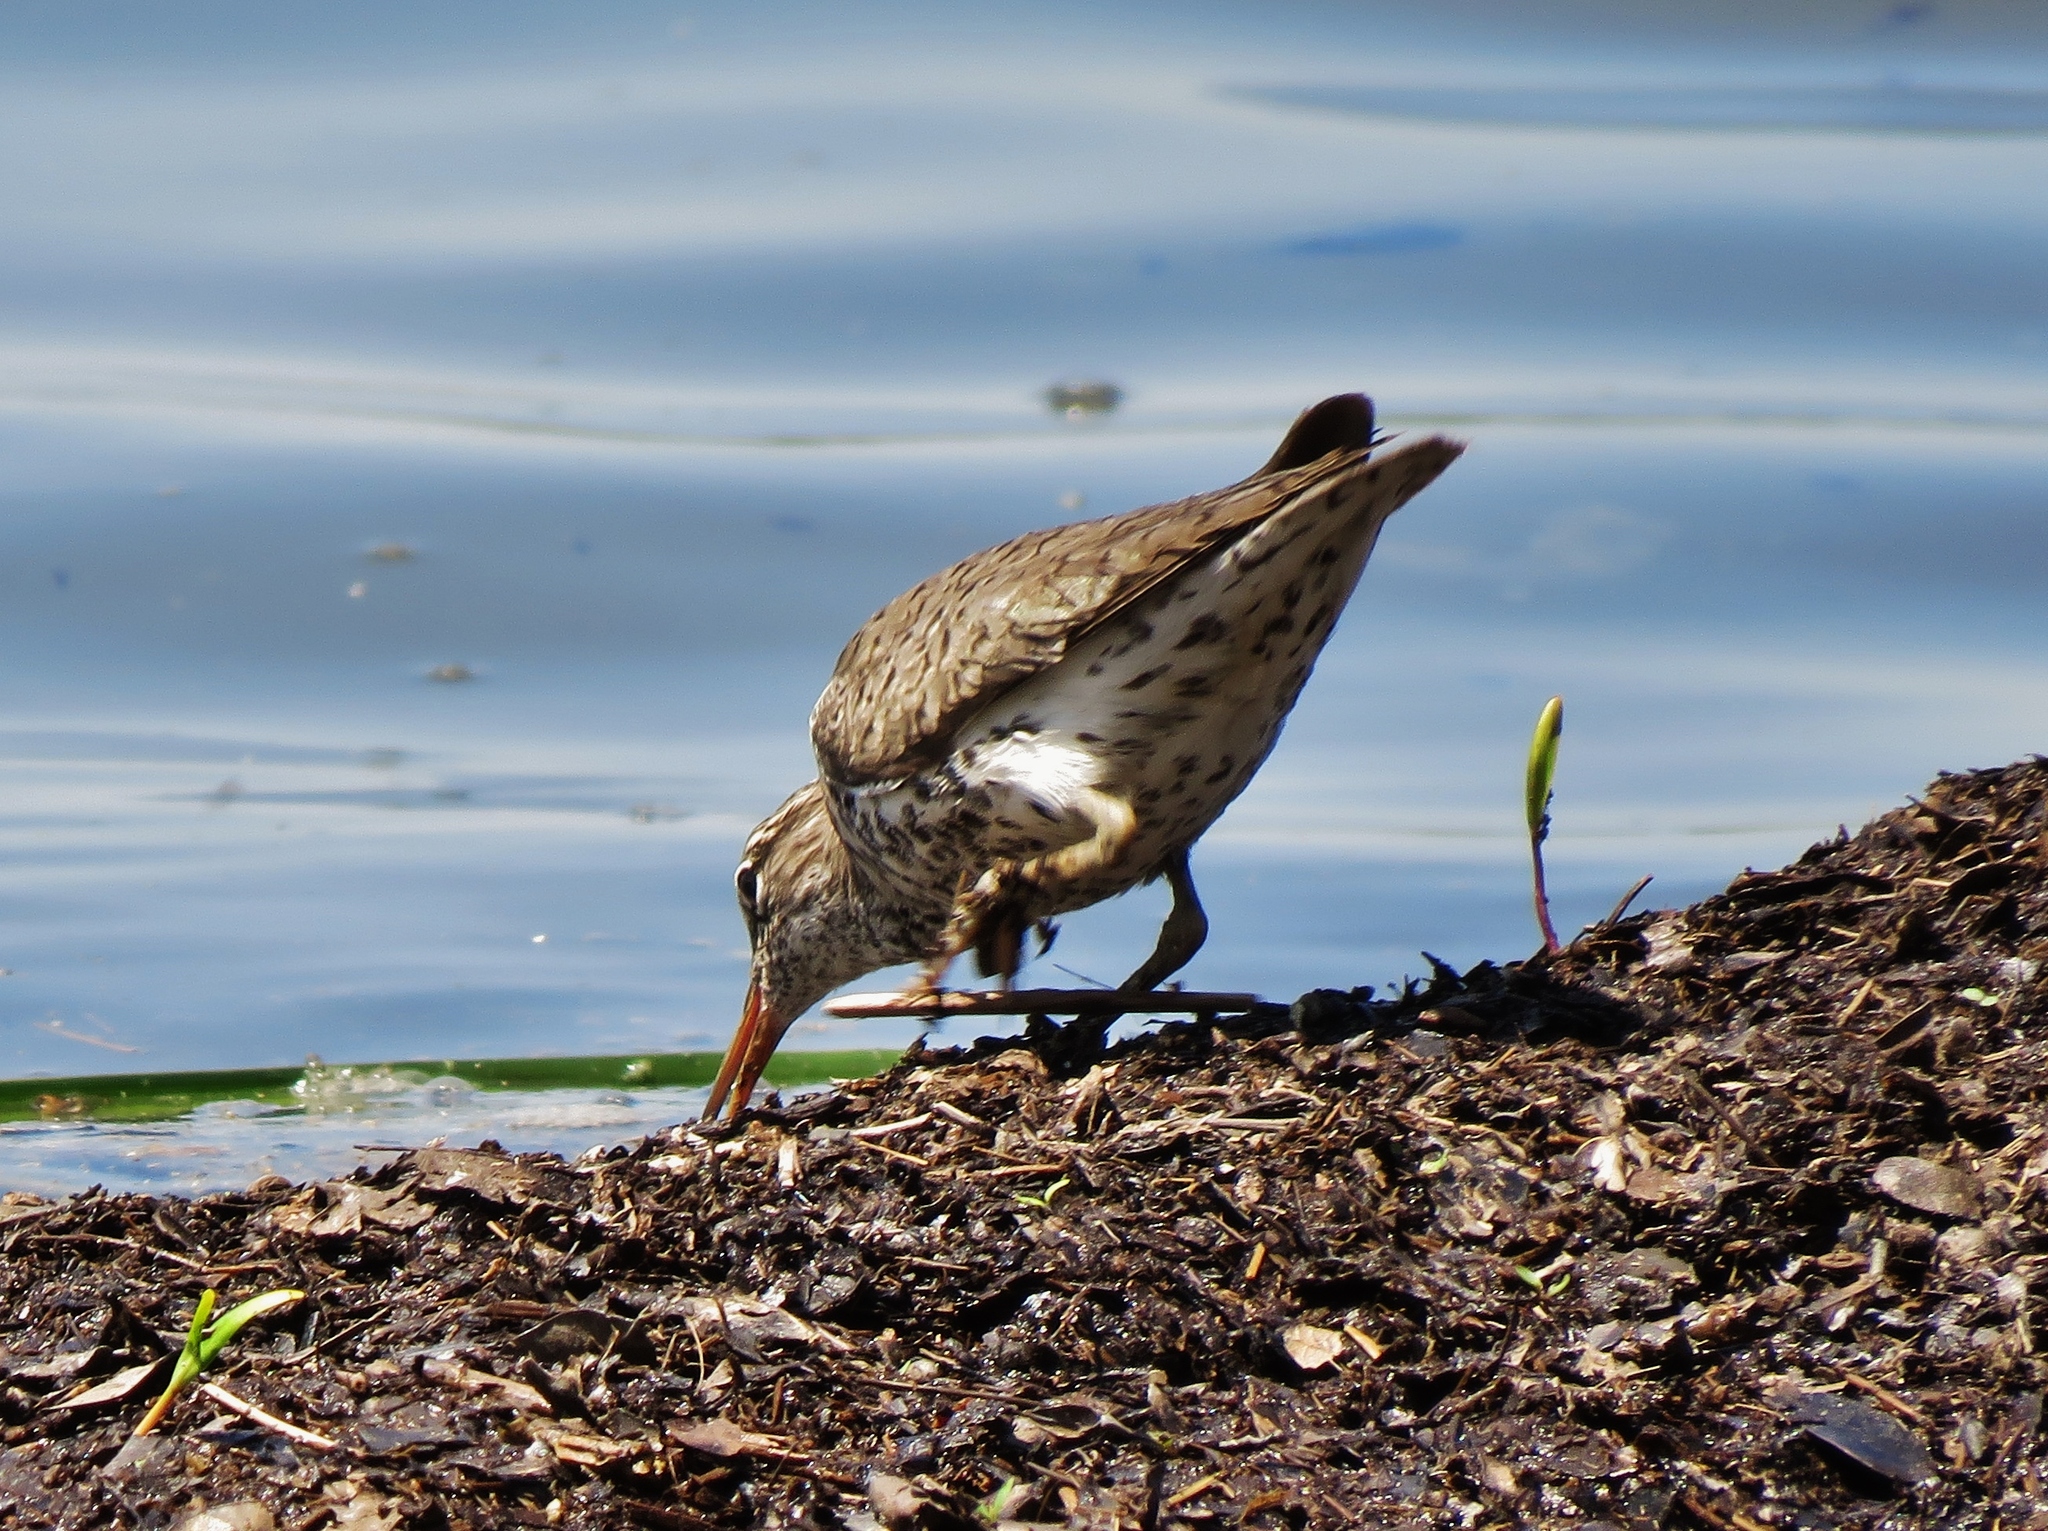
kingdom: Animalia
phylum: Chordata
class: Aves
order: Charadriiformes
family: Scolopacidae
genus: Actitis
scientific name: Actitis macularius
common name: Spotted sandpiper
